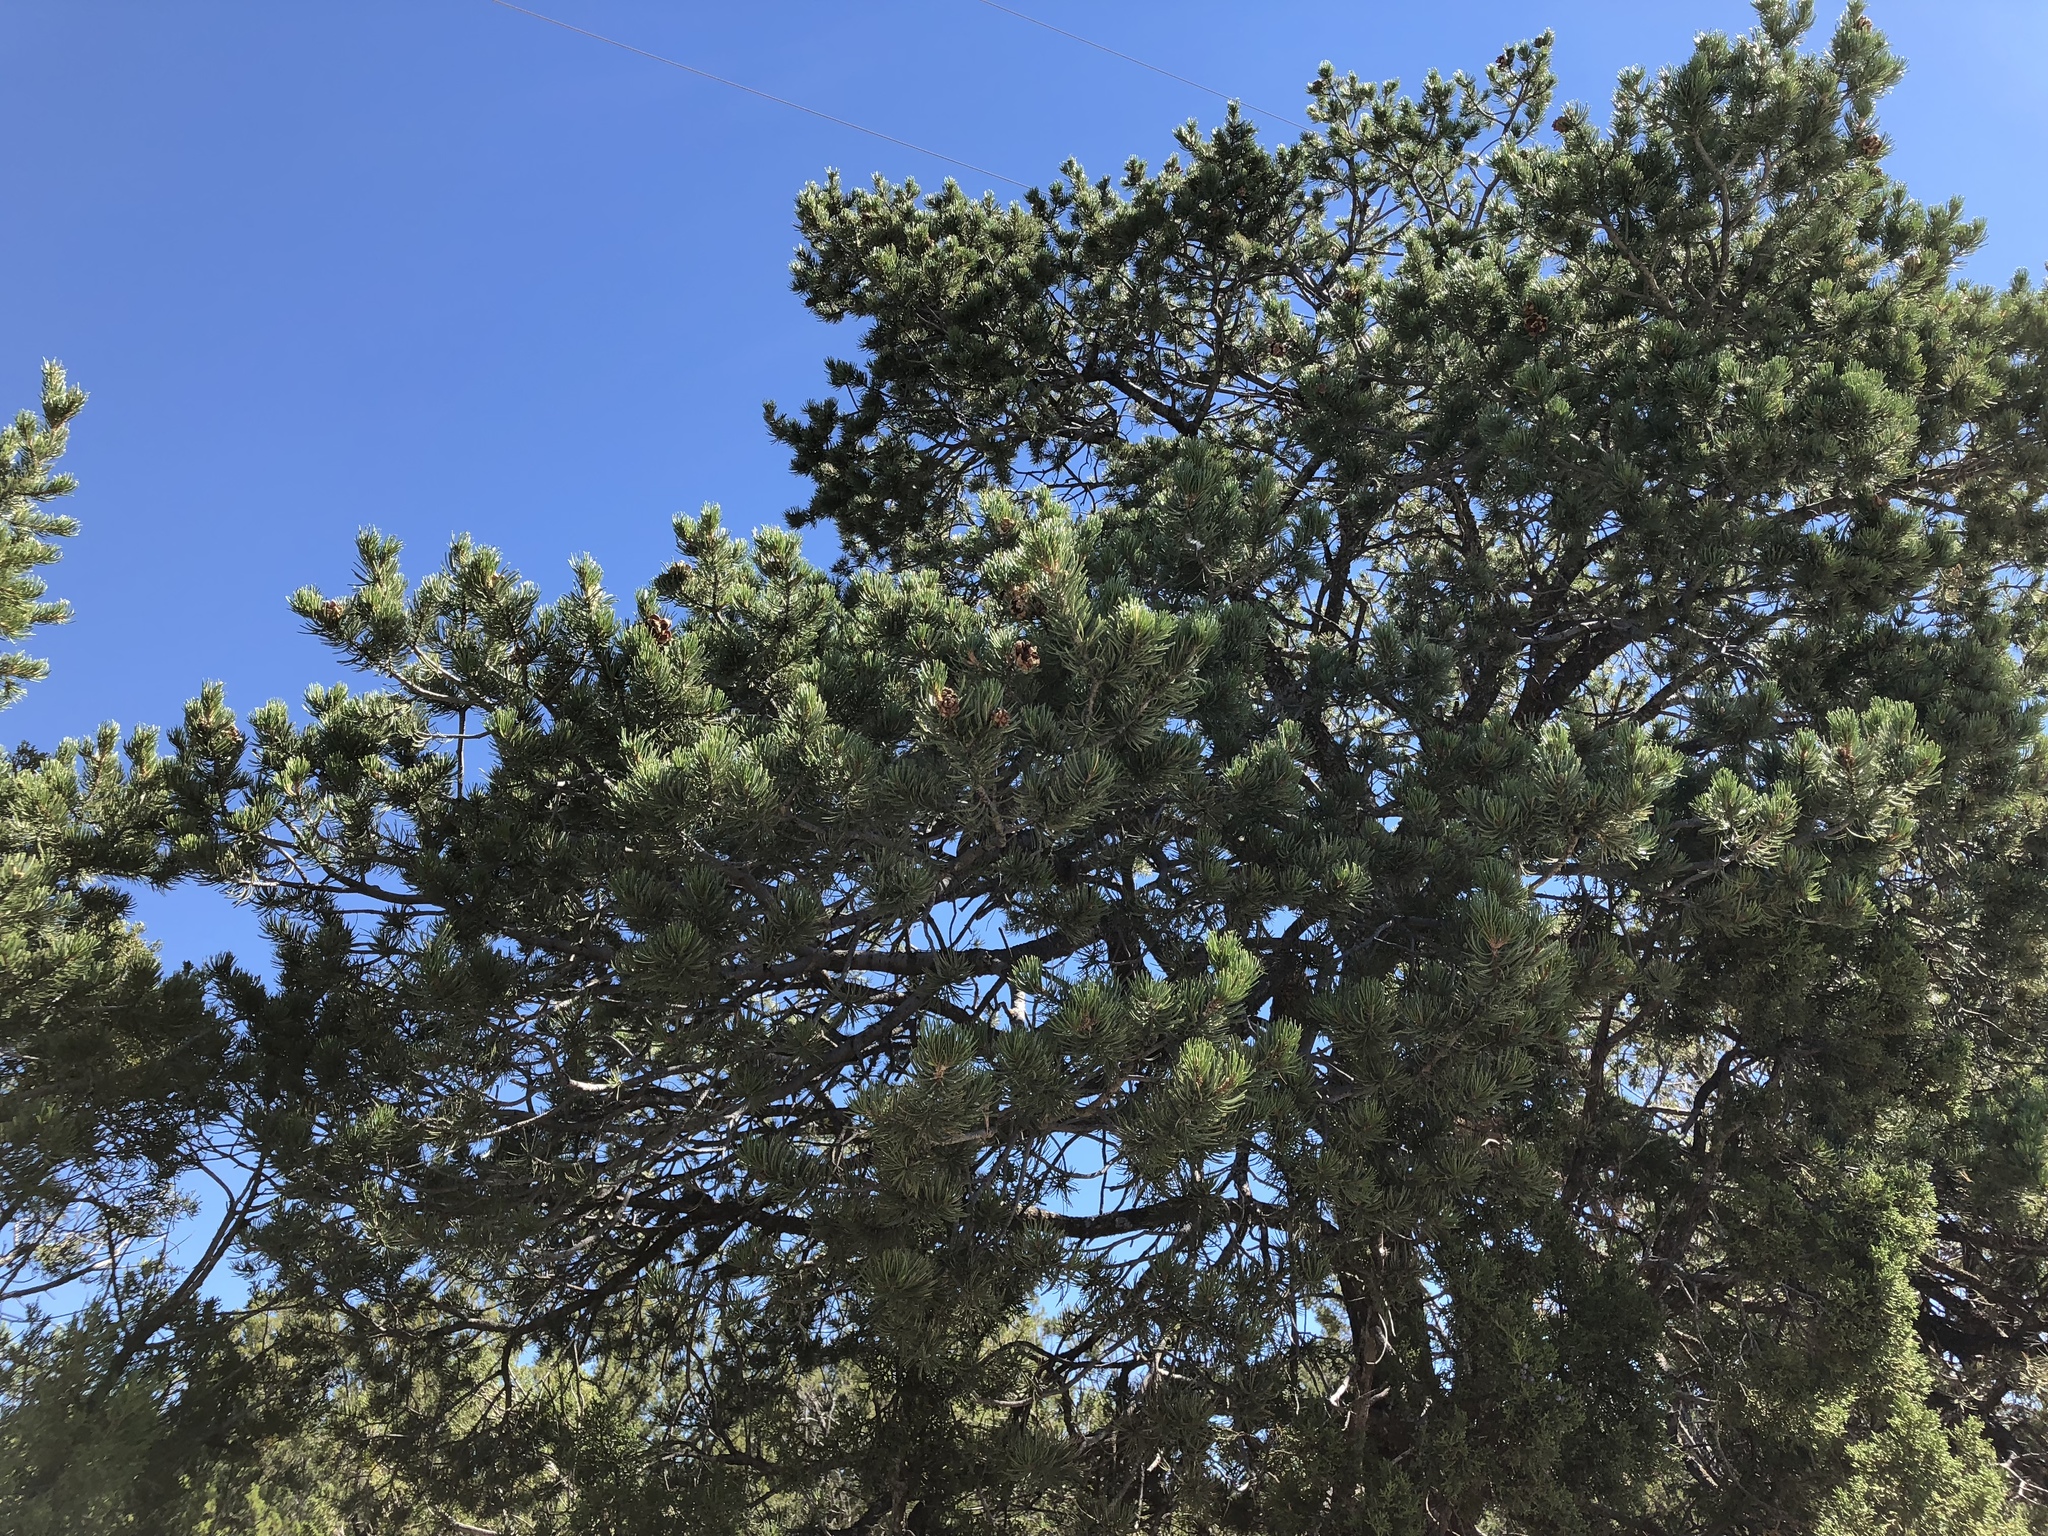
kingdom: Plantae
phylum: Tracheophyta
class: Pinopsida
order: Pinales
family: Pinaceae
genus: Pinus
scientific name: Pinus edulis
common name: Colorado pinyon
